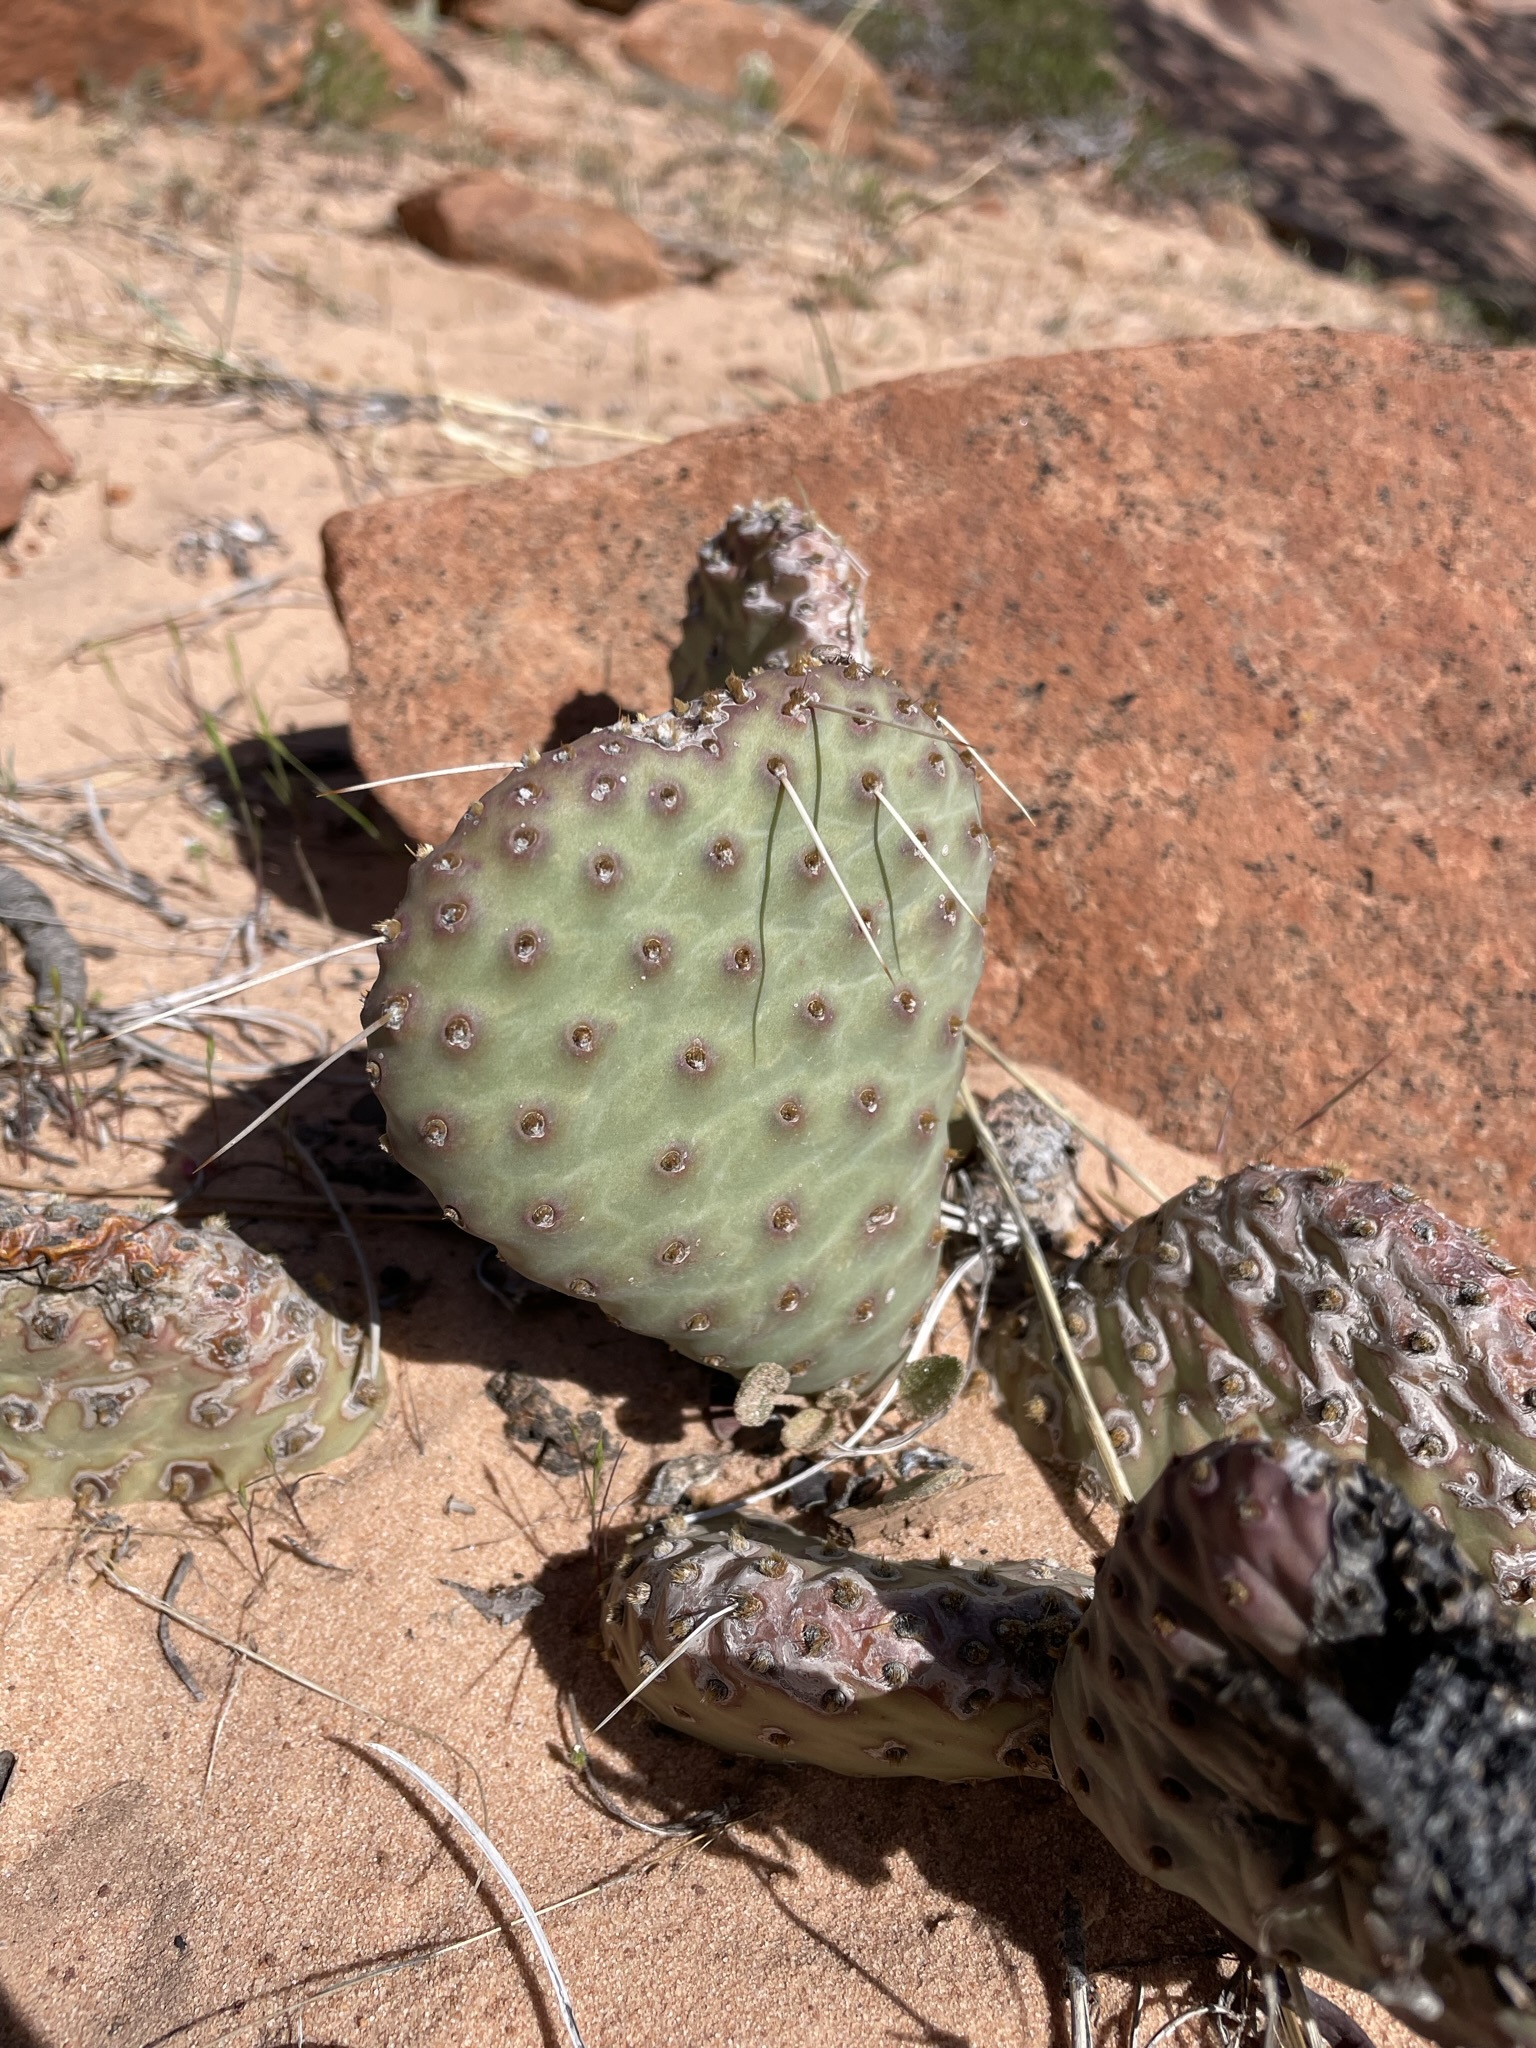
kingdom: Plantae
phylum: Tracheophyta
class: Magnoliopsida
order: Caryophyllales
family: Cactaceae
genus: Opuntia
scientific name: Opuntia aurea
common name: Golden prickly-pear
